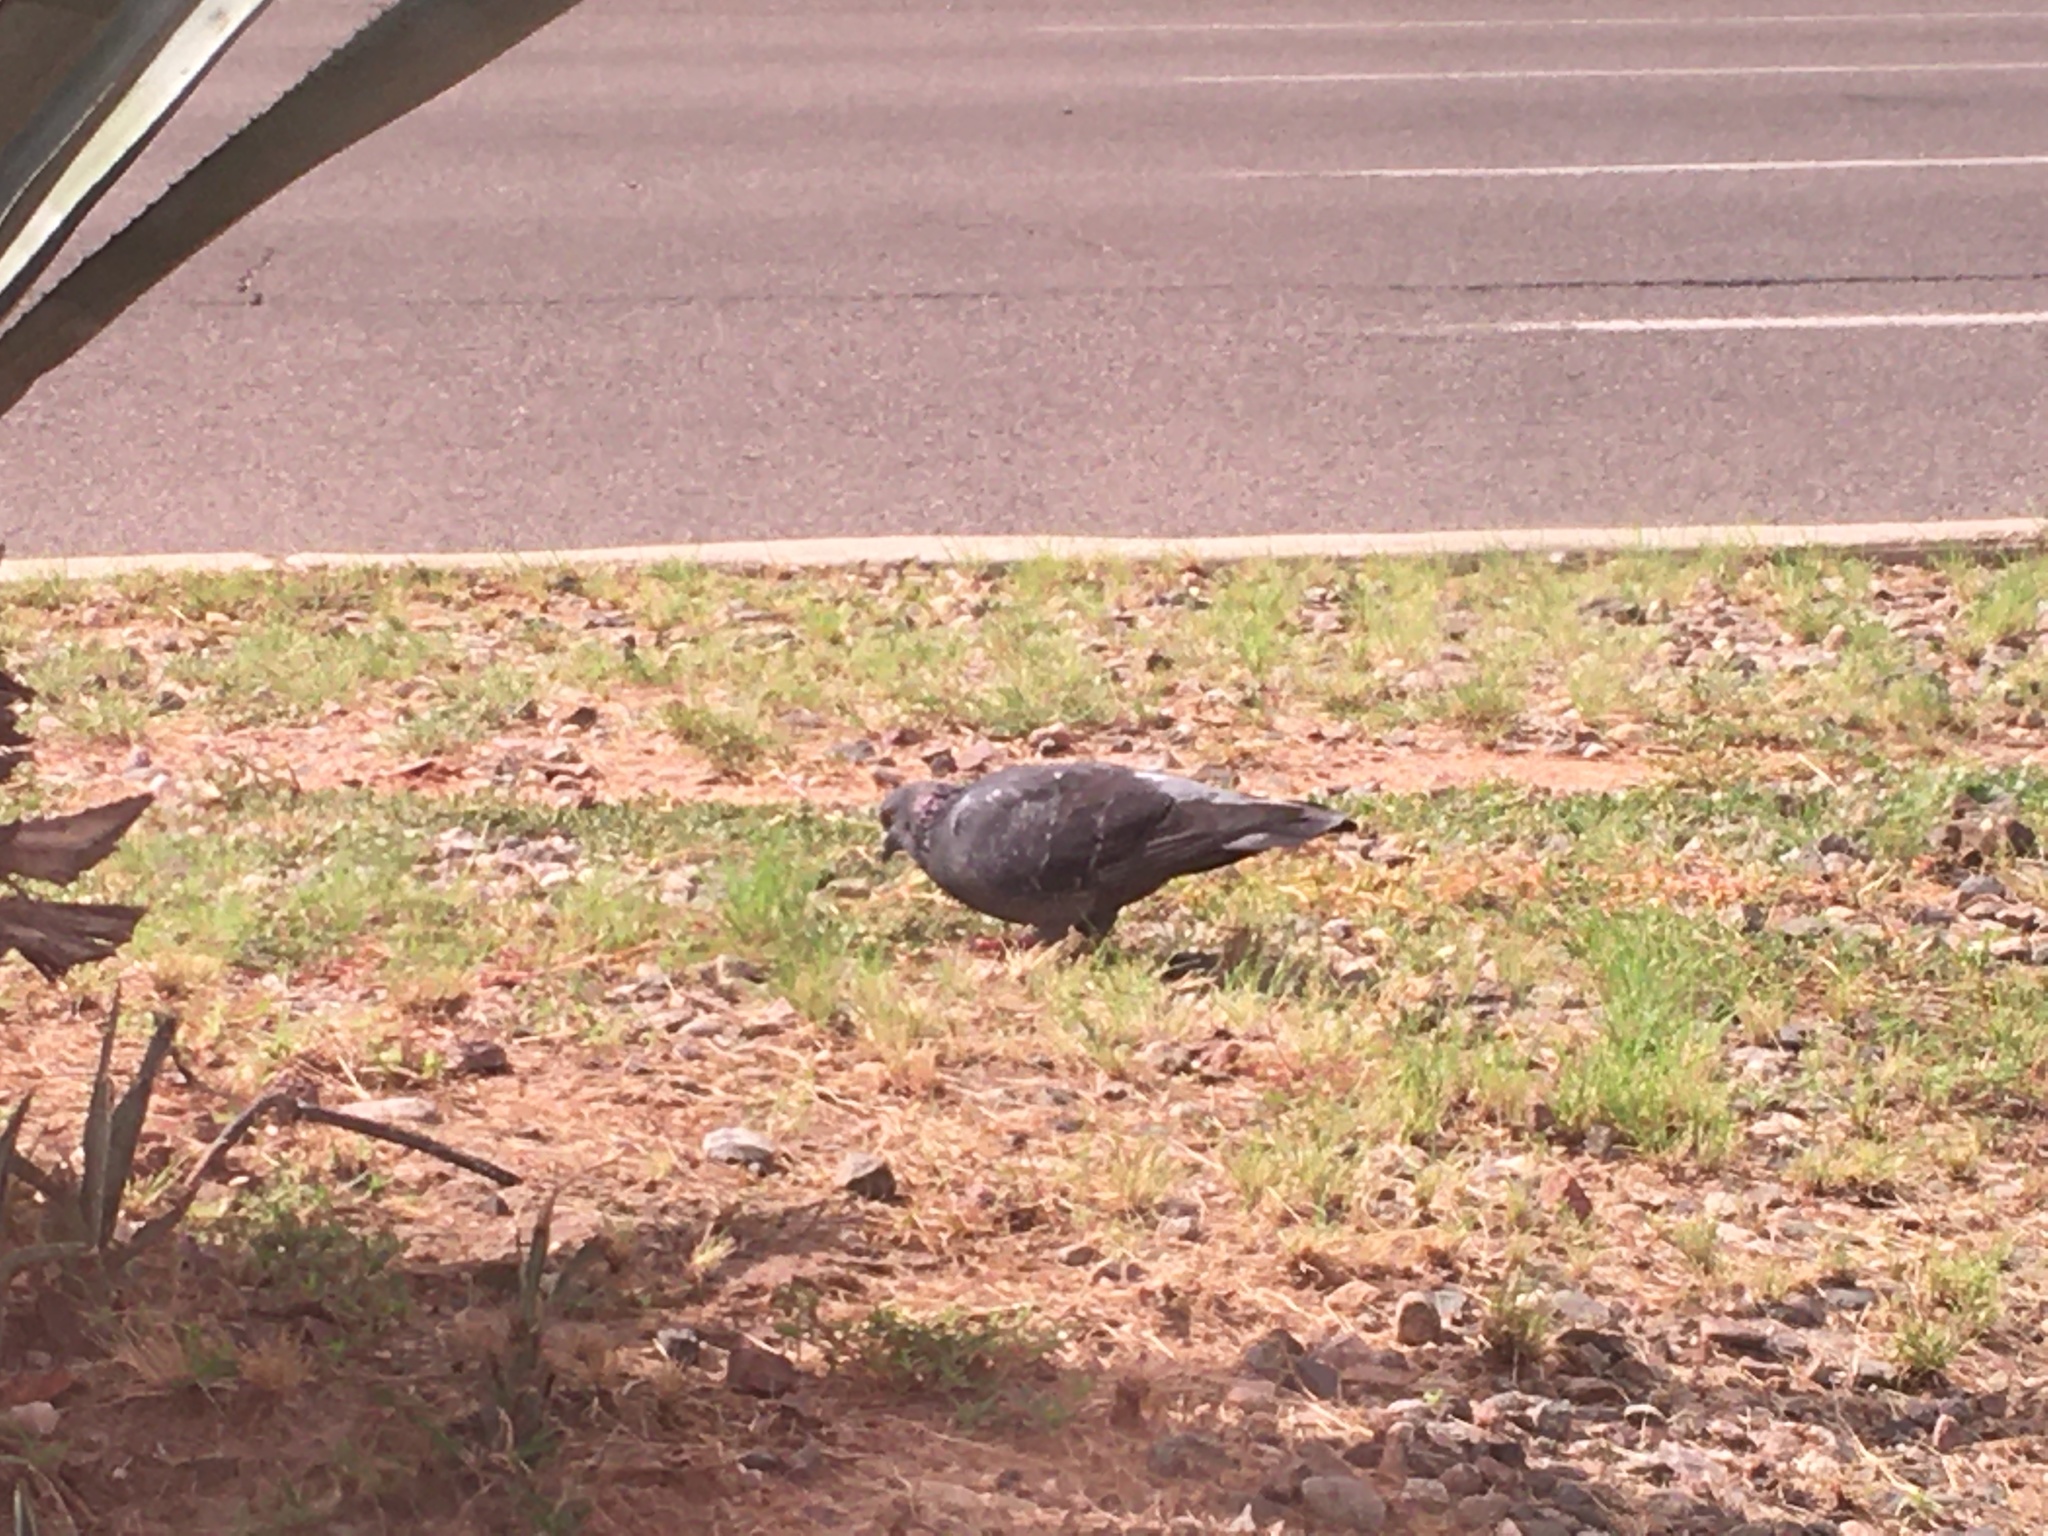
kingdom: Animalia
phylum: Chordata
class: Aves
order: Columbiformes
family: Columbidae
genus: Columba
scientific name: Columba livia
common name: Rock pigeon
